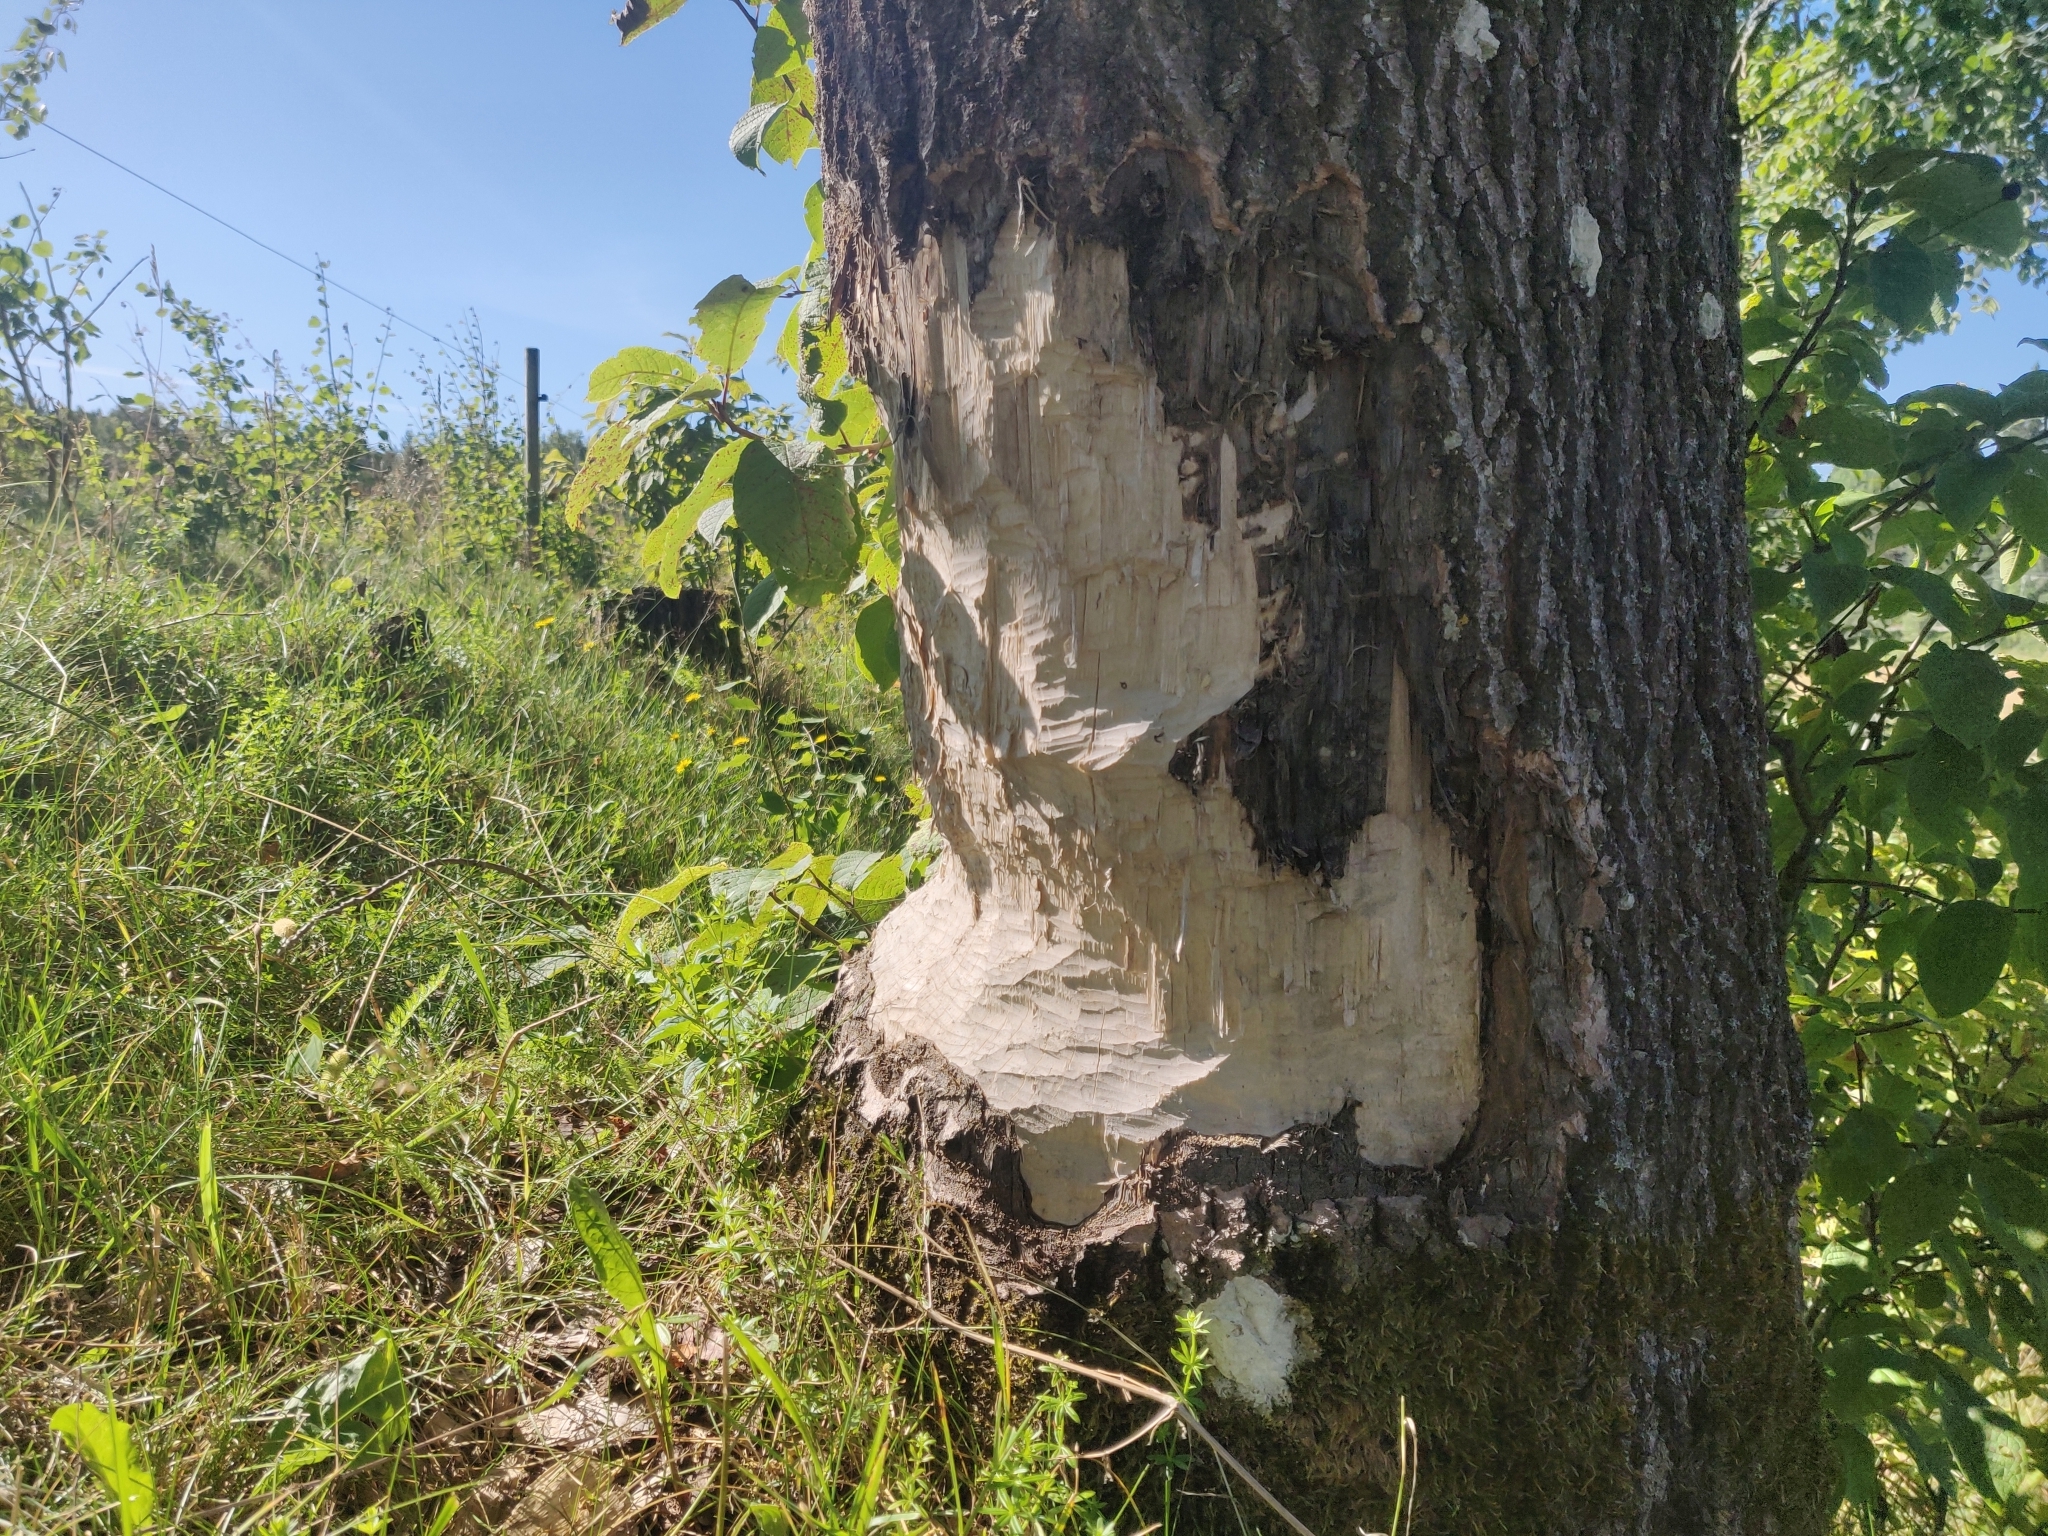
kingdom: Animalia
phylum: Chordata
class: Mammalia
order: Rodentia
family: Castoridae
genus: Castor
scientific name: Castor fiber
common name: Eurasian beaver
